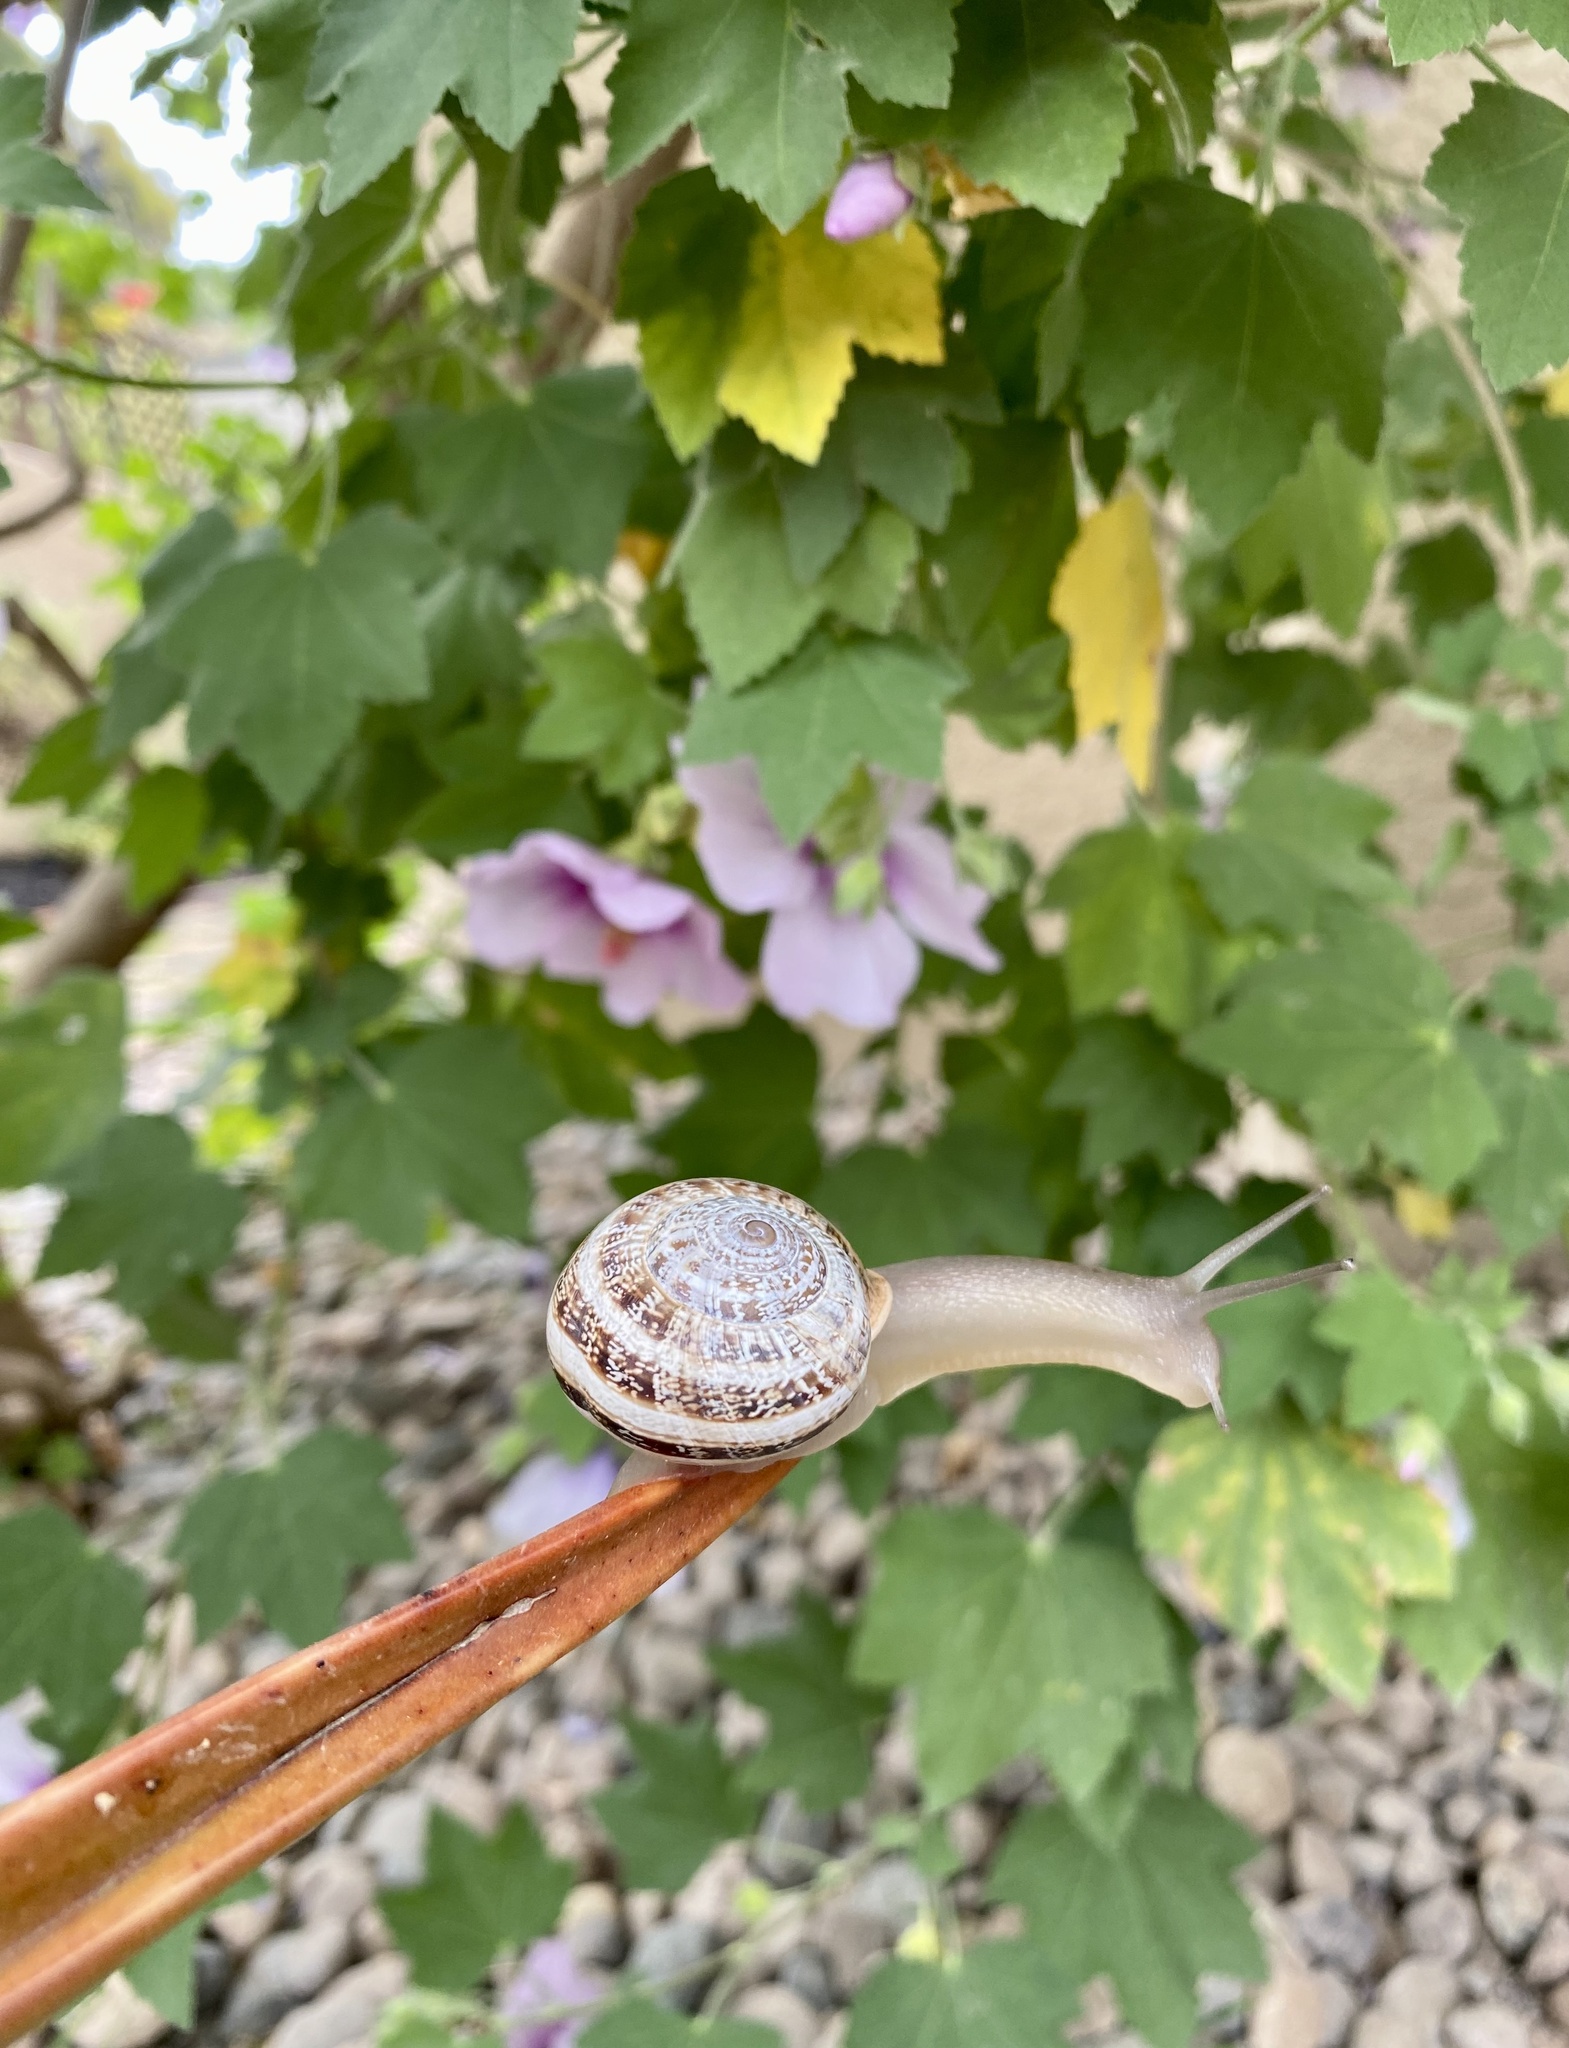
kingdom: Animalia
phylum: Mollusca
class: Gastropoda
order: Stylommatophora
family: Helicidae
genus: Otala
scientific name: Otala lactea
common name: Milk snail
